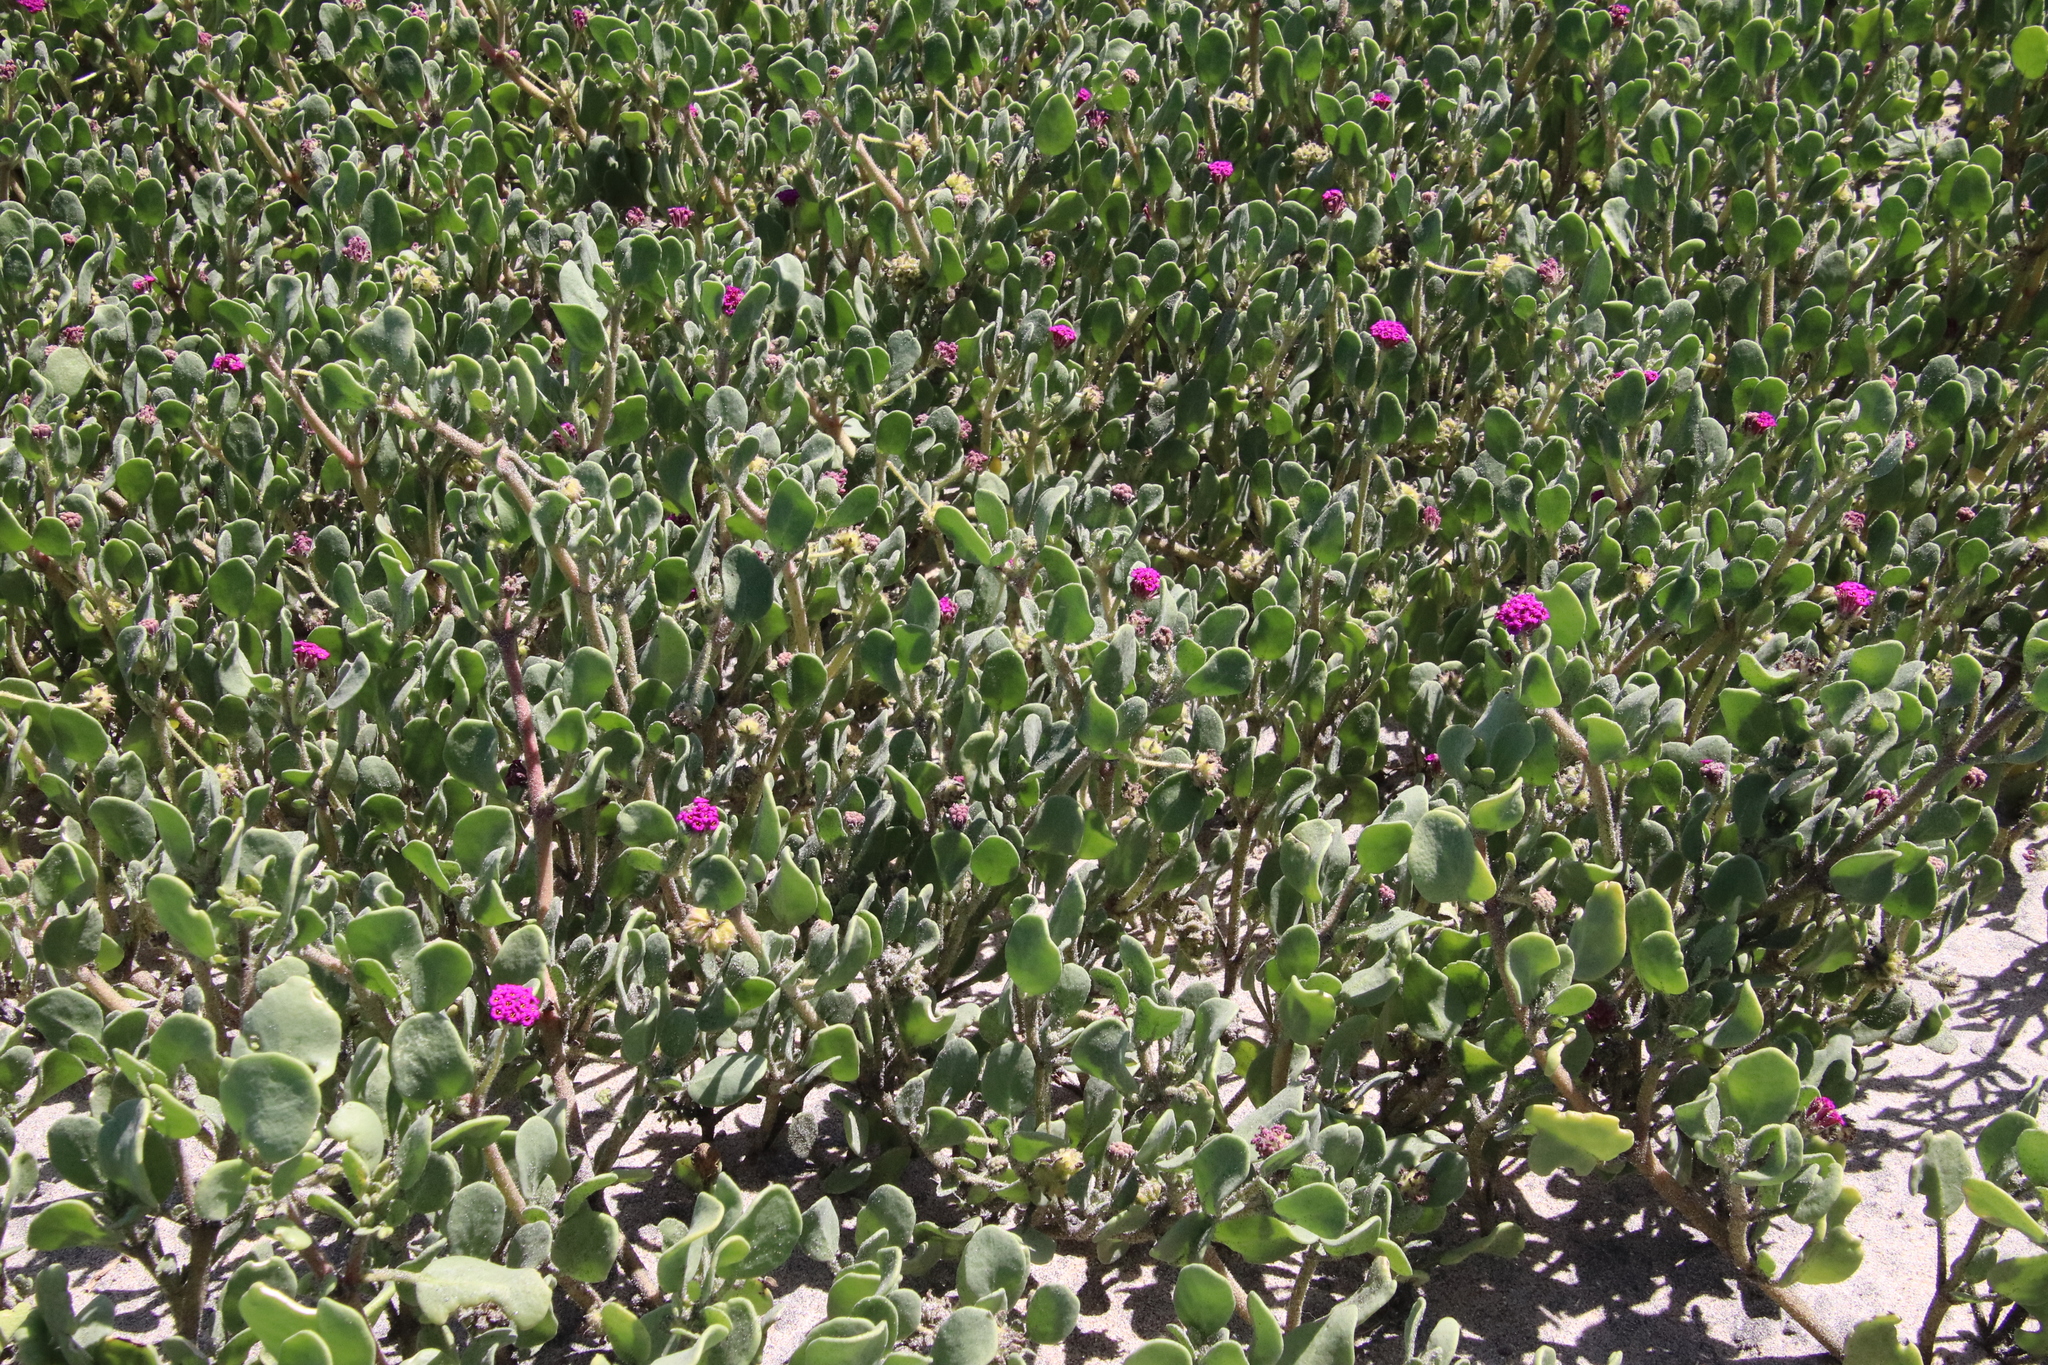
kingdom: Plantae
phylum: Tracheophyta
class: Magnoliopsida
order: Caryophyllales
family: Nyctaginaceae
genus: Abronia
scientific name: Abronia maritima
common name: Red sand-verbena
